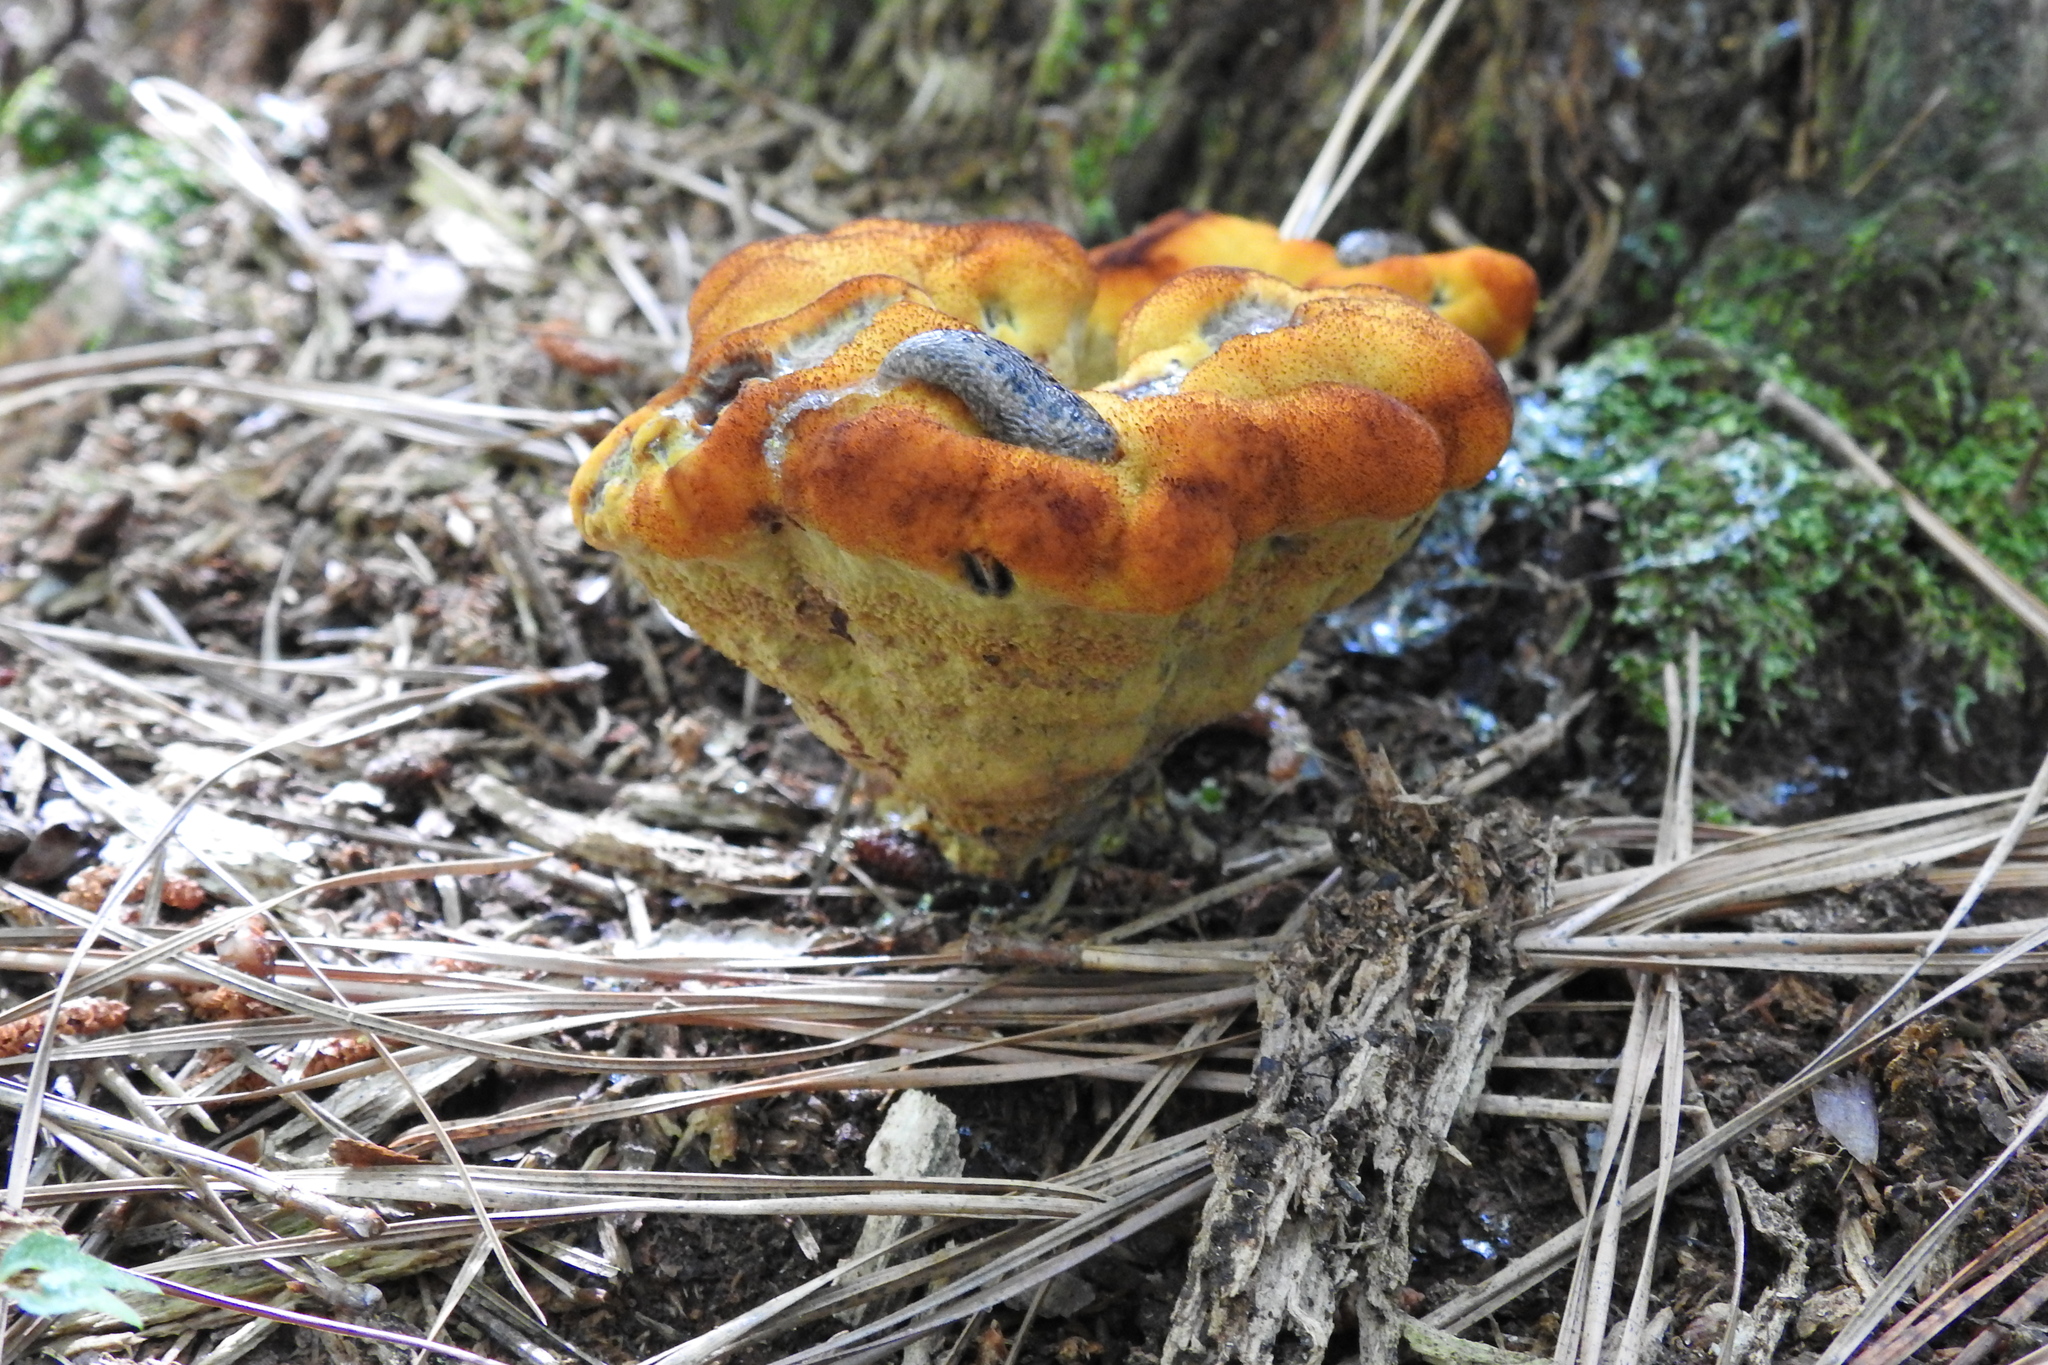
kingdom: Fungi
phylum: Basidiomycota
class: Agaricomycetes
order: Polyporales
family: Laetiporaceae
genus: Phaeolus
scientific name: Phaeolus schweinitzii
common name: Dyer's mazegill
